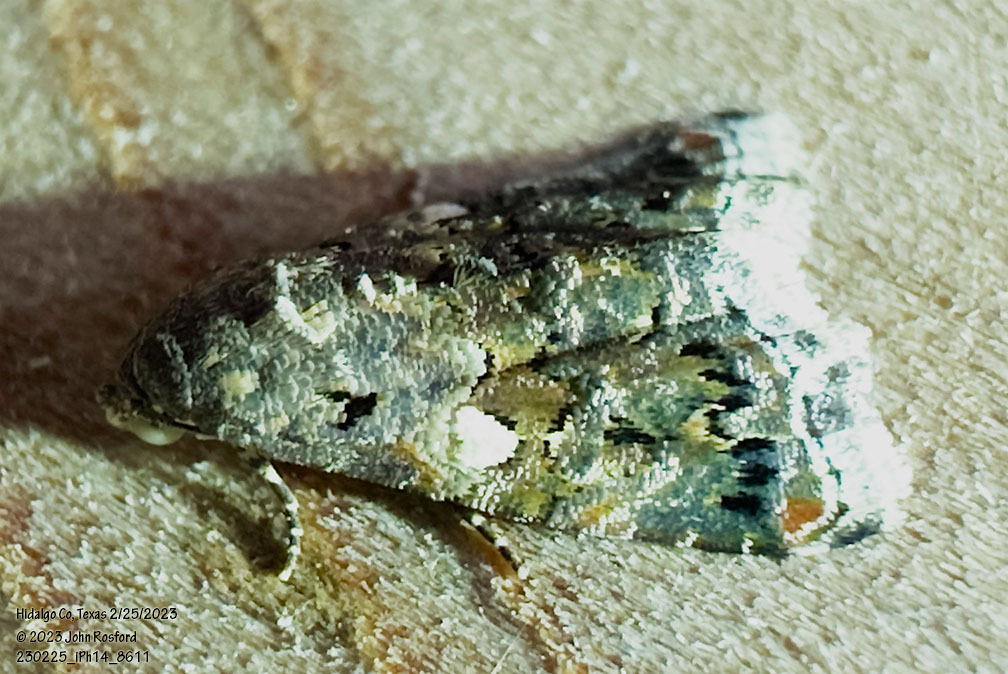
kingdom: Animalia
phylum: Arthropoda
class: Insecta
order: Lepidoptera
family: Noctuidae
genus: Tripudia
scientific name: Tripudia luxuriosa
